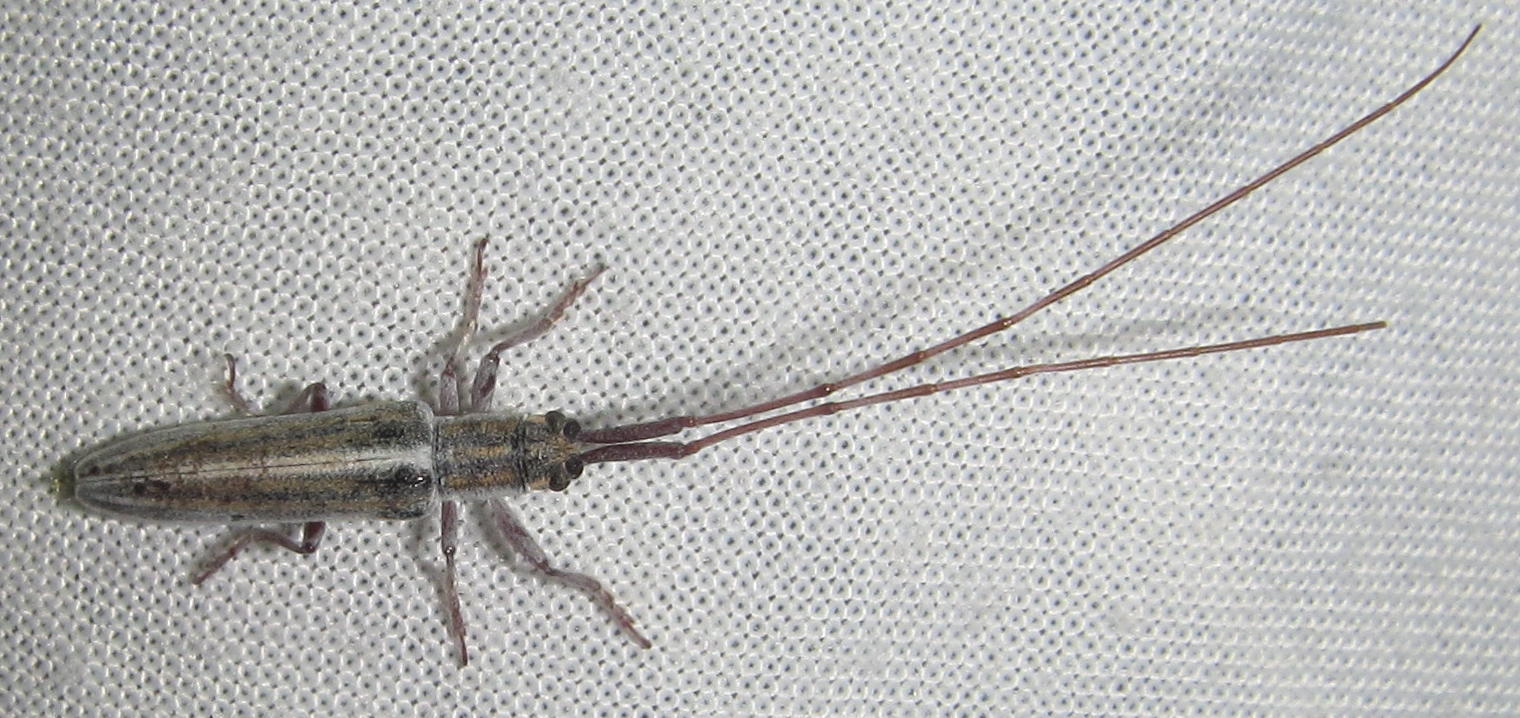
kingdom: Animalia
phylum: Arthropoda
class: Insecta
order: Coleoptera
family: Cerambycidae
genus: Hyllisia
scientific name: Hyllisia laterialba
